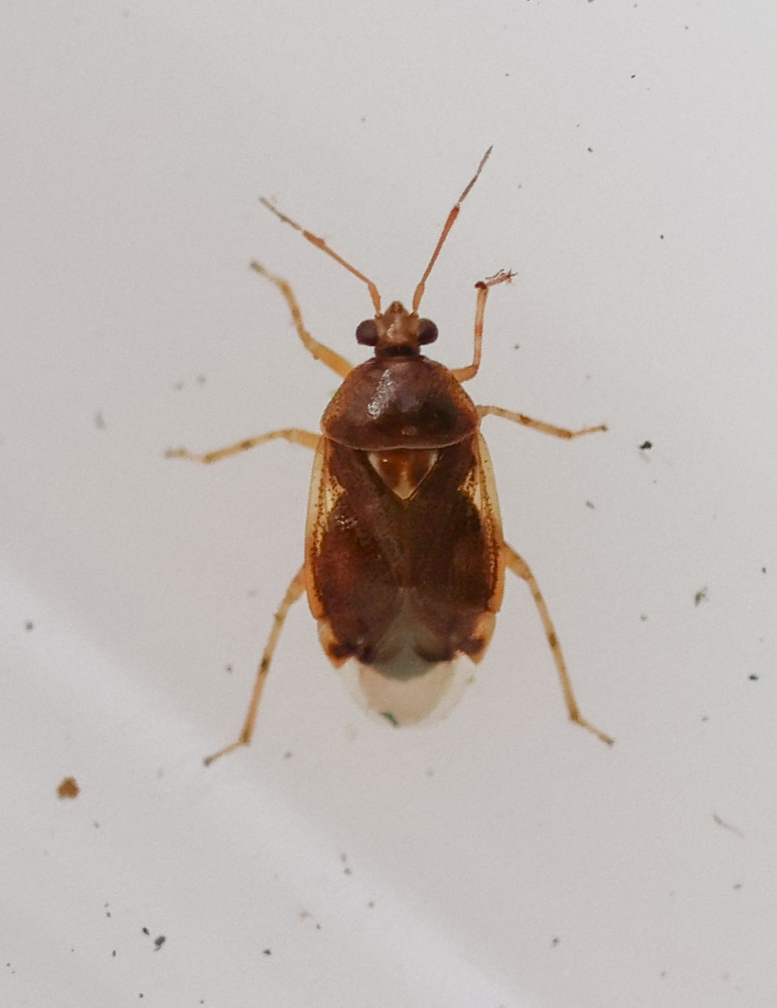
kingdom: Animalia
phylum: Arthropoda
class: Insecta
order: Hemiptera
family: Miridae
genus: Deraeocoris
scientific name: Deraeocoris lutescens
